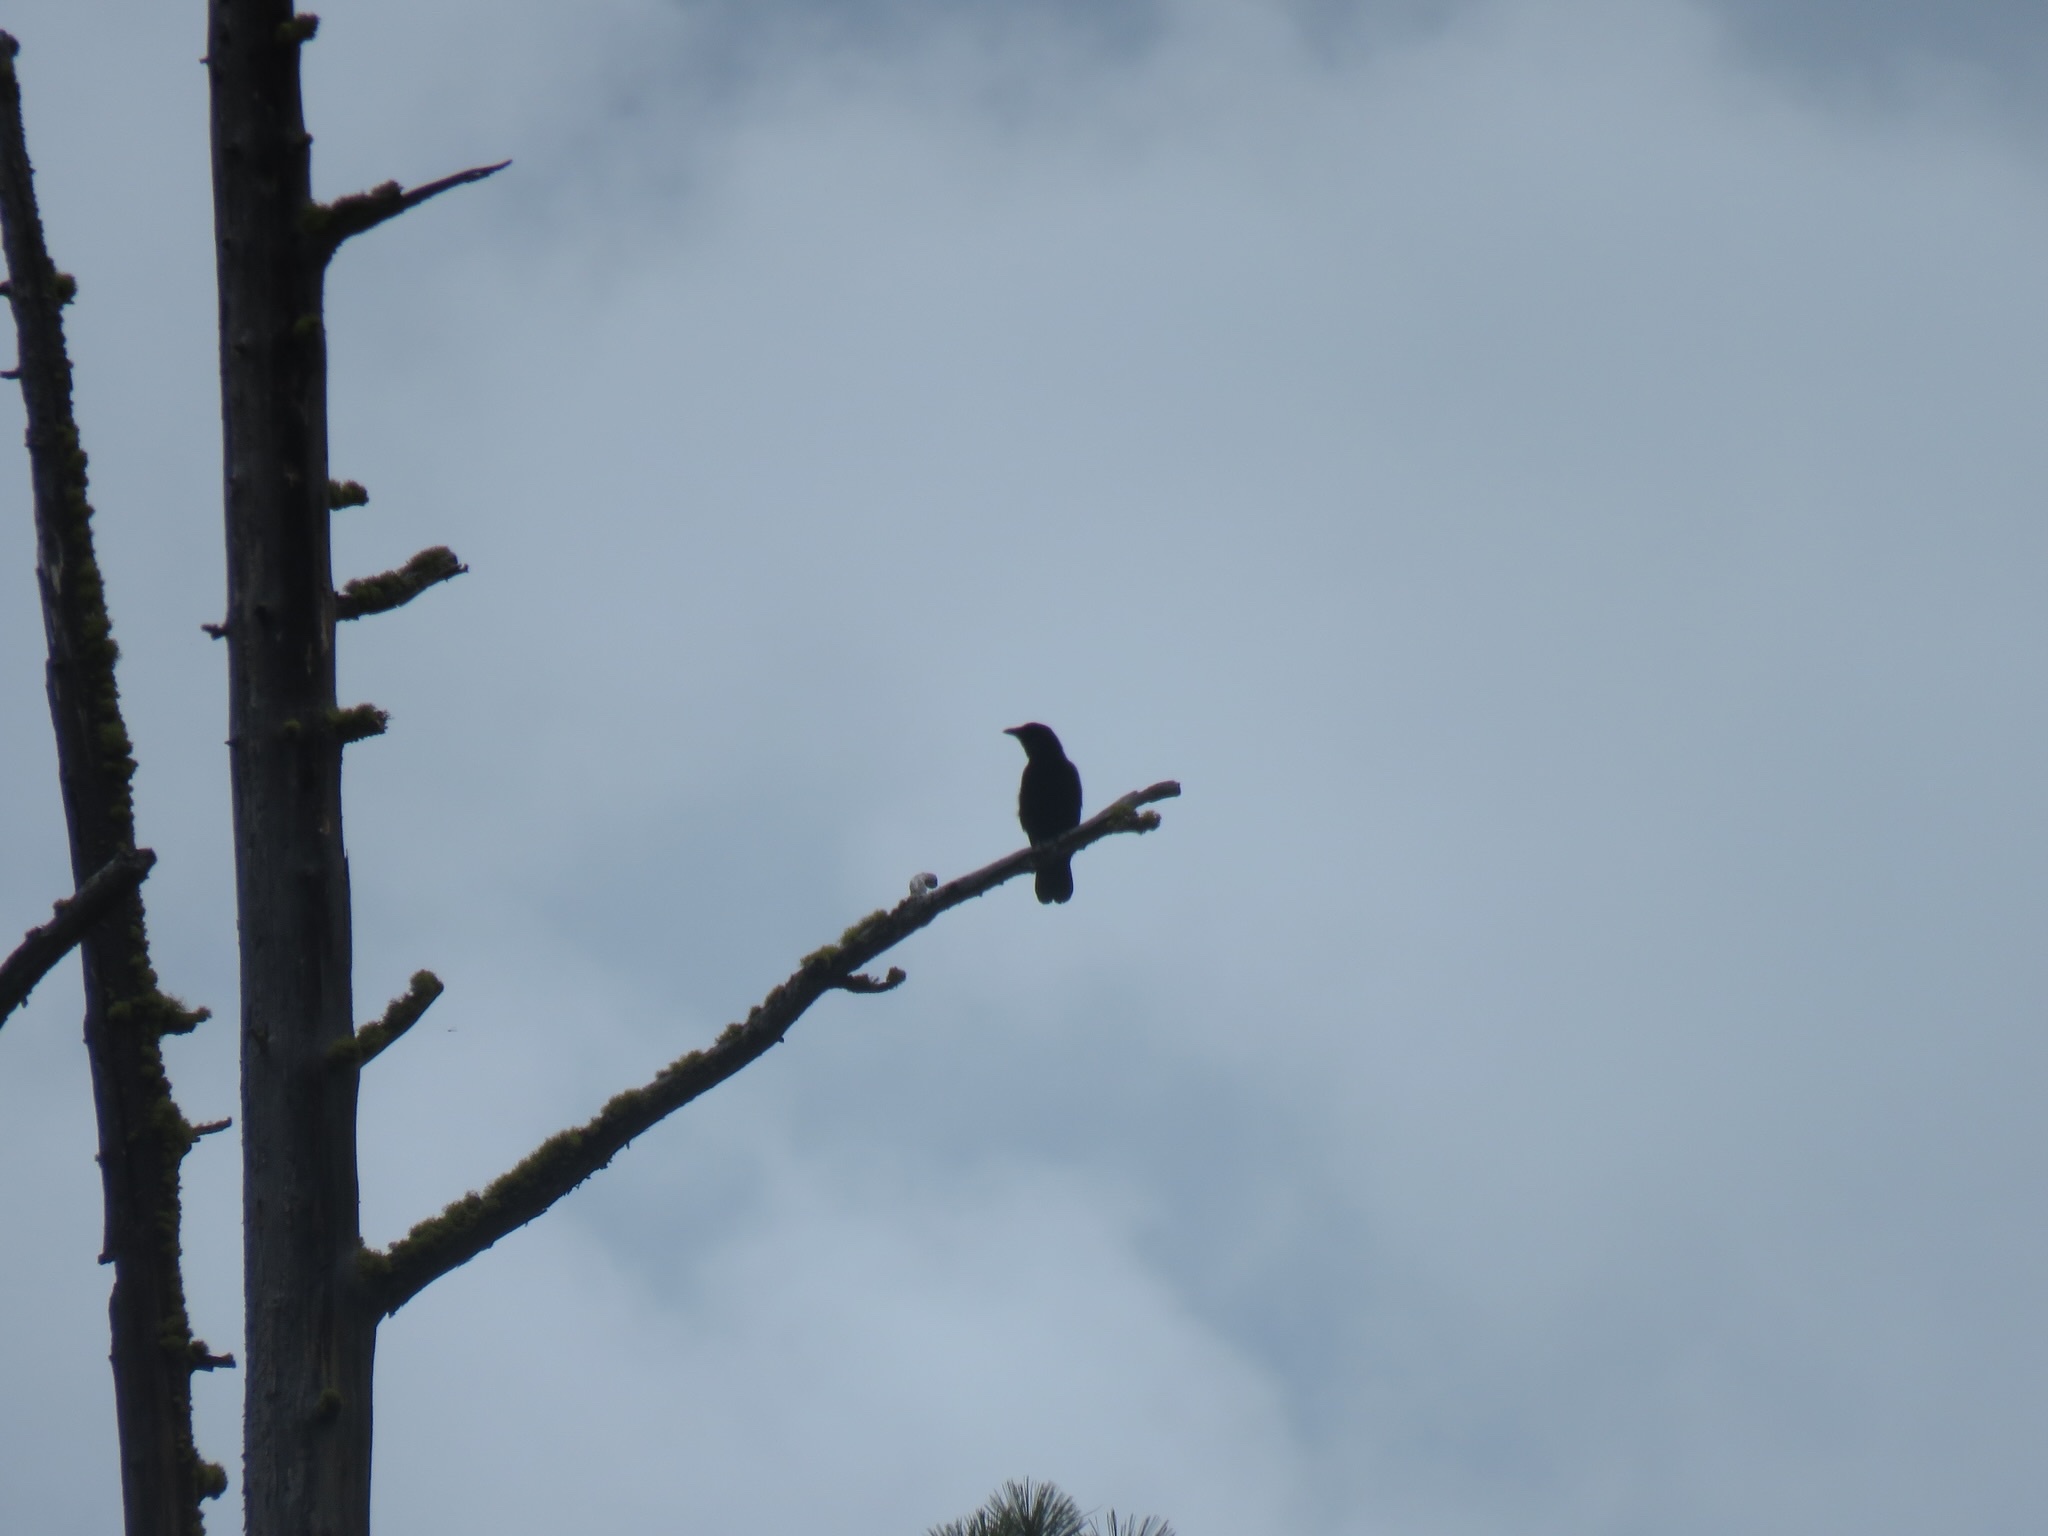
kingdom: Animalia
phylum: Chordata
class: Aves
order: Passeriformes
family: Corvidae
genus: Corvus
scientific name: Corvus brachyrhynchos
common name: American crow
